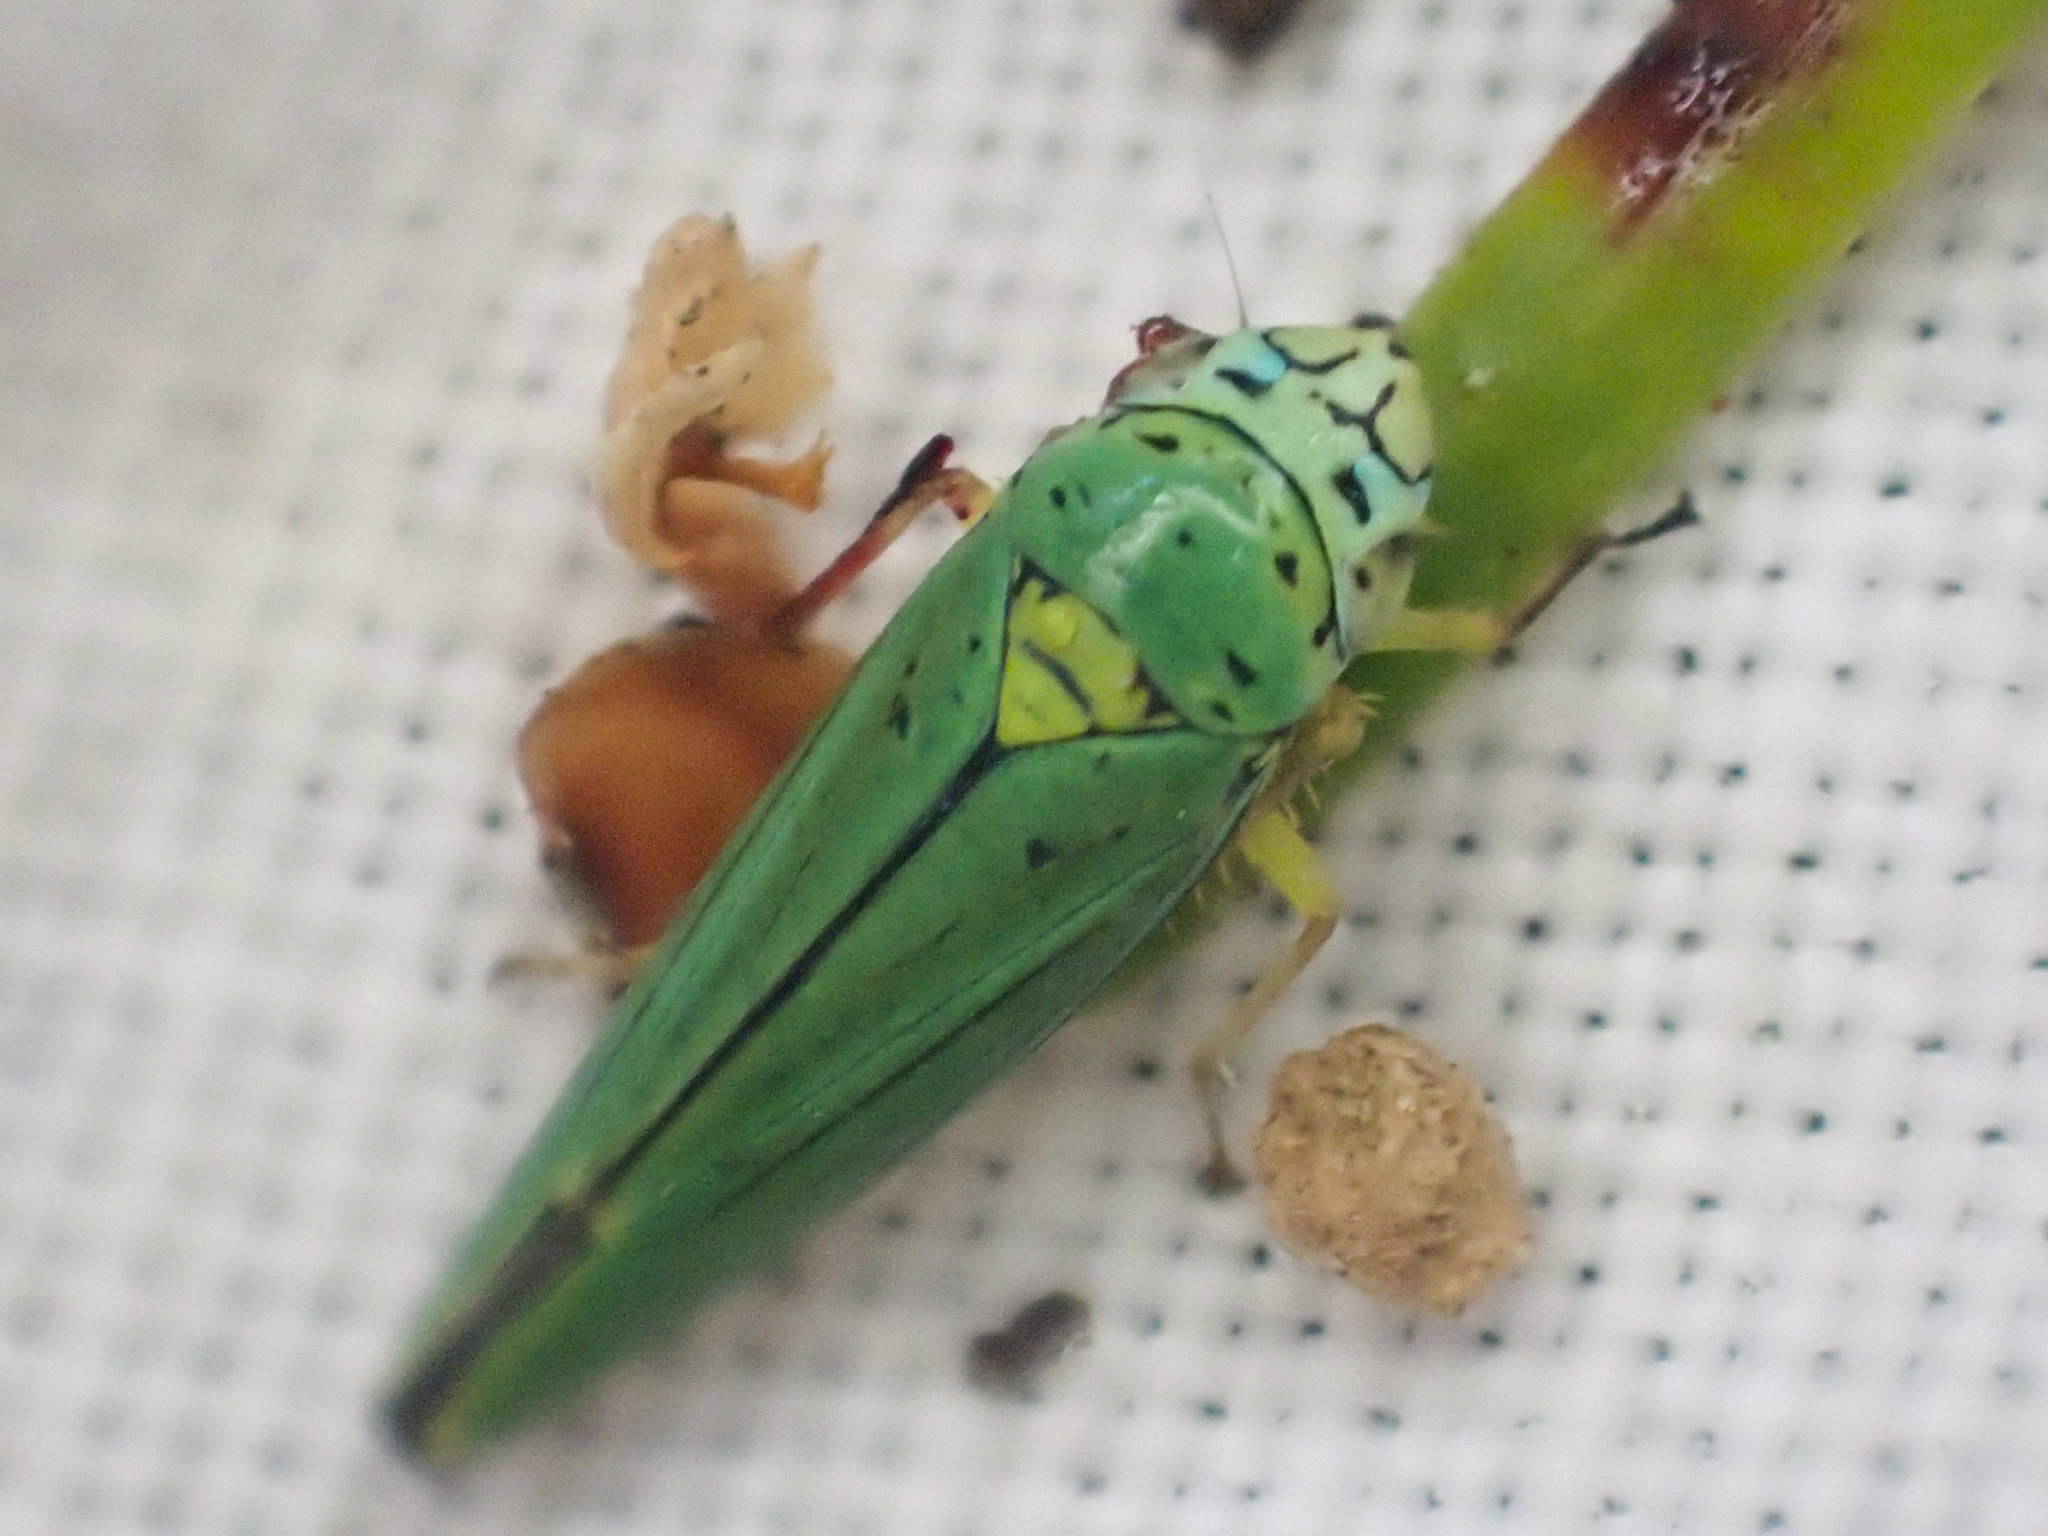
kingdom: Animalia
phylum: Arthropoda
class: Insecta
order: Hemiptera
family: Cicadellidae
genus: Graphocephala
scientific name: Graphocephala atropunctata
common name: Blue-green sharpshooter
